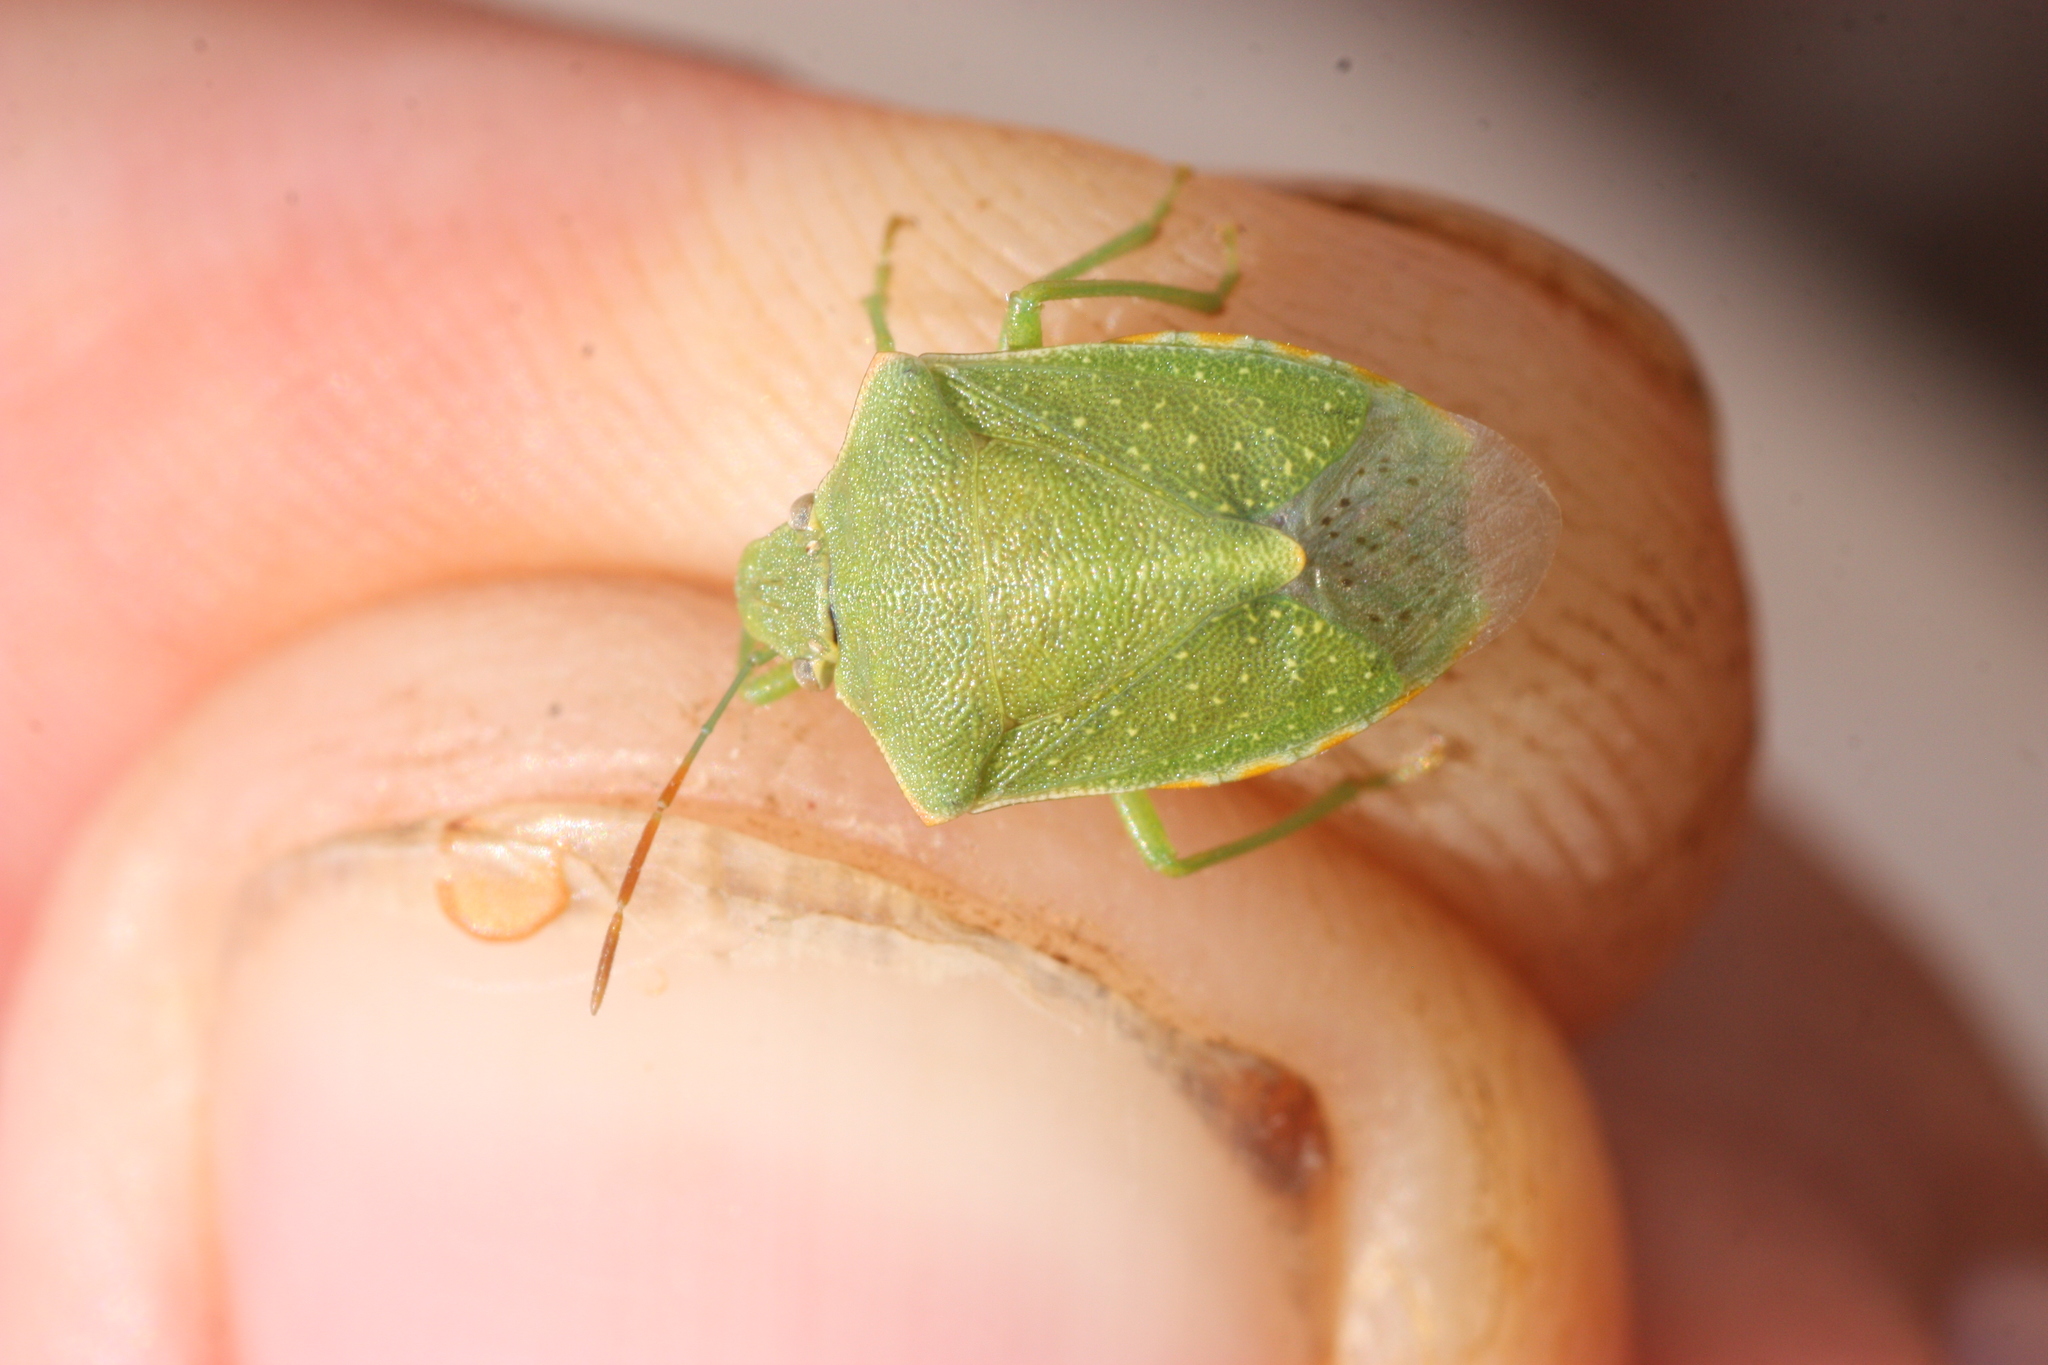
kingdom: Animalia
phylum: Arthropoda
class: Insecta
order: Hemiptera
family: Pentatomidae
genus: Thyanta
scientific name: Thyanta accerra
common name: Stink bug
